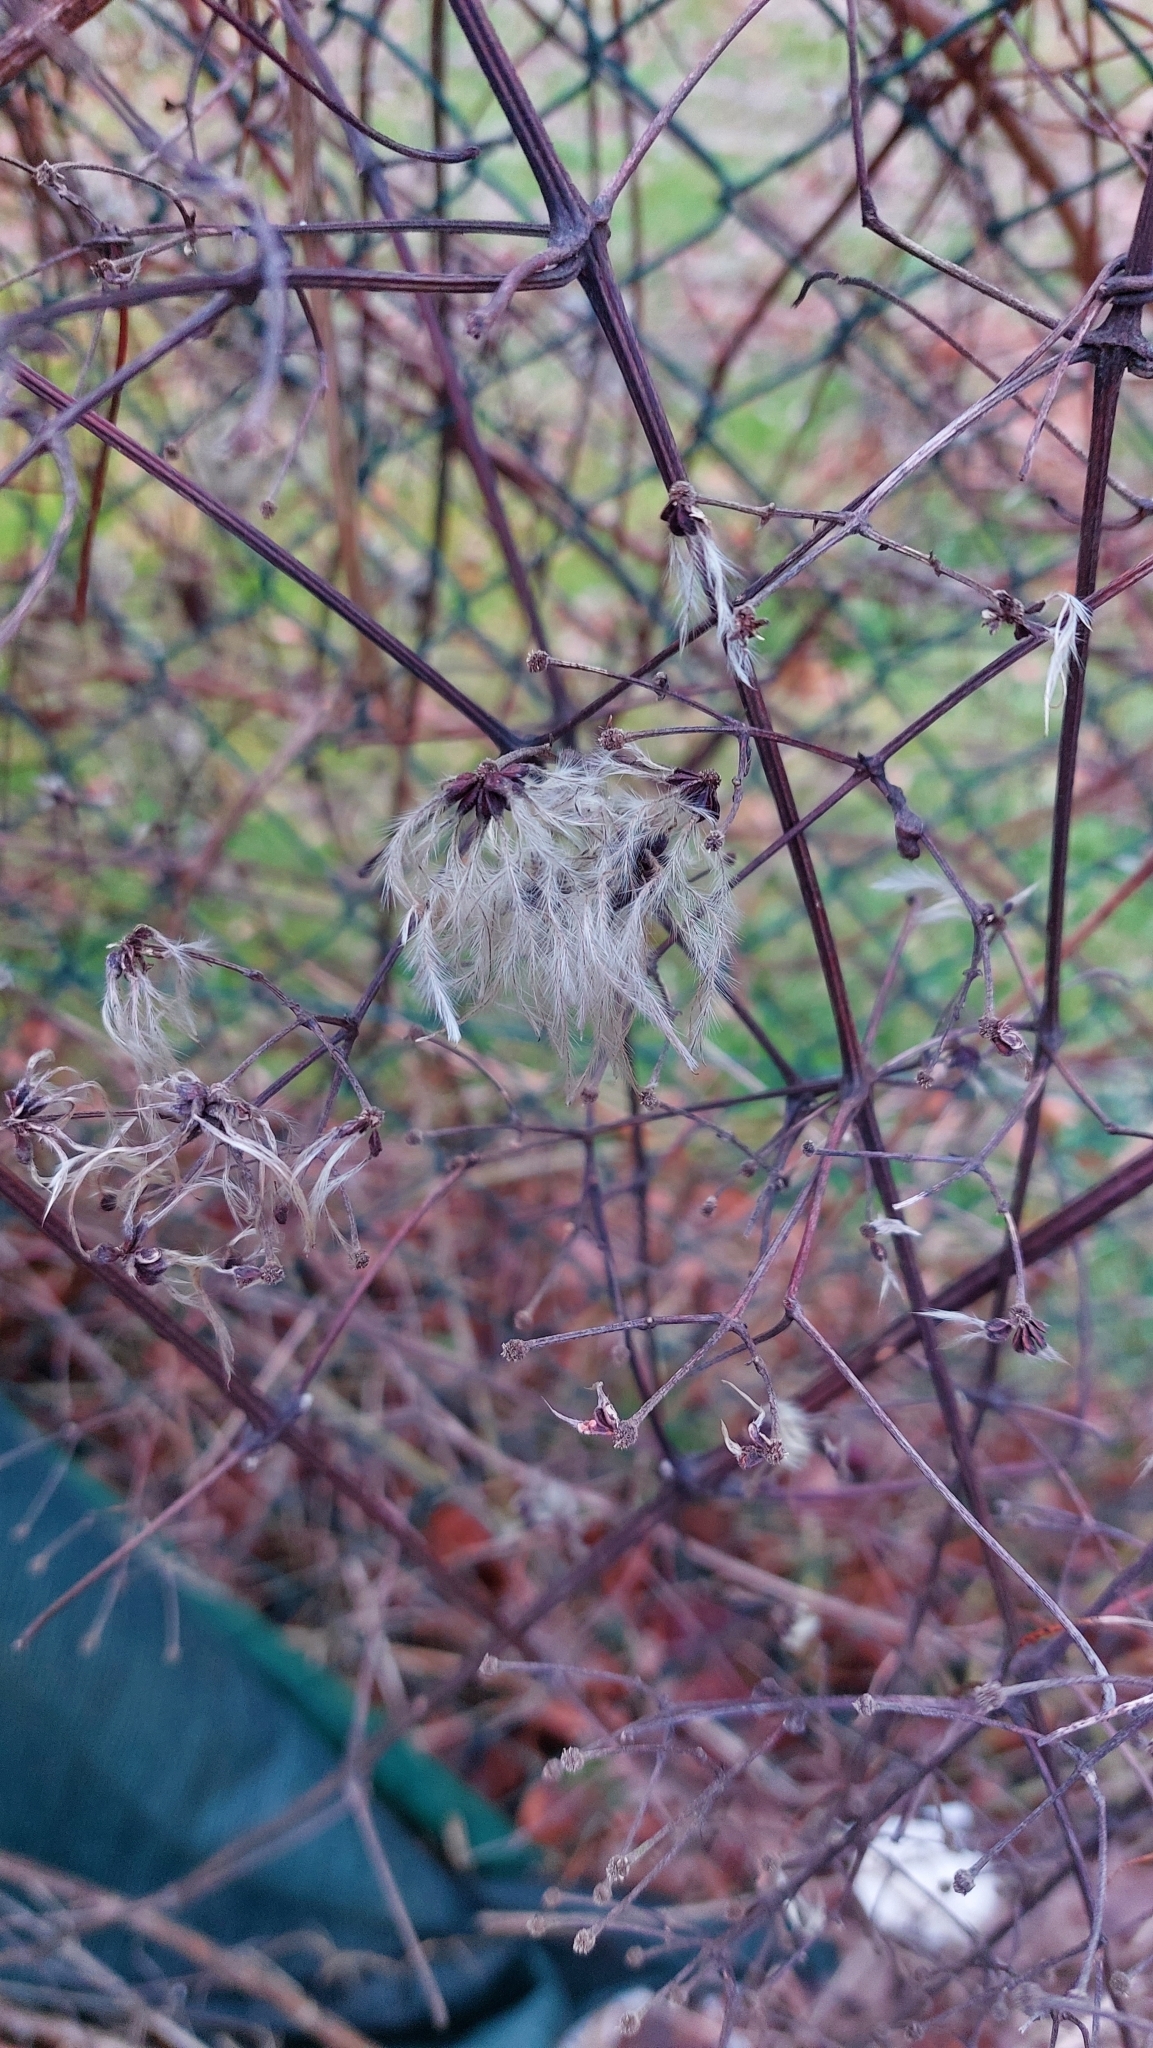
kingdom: Plantae
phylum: Tracheophyta
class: Magnoliopsida
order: Ranunculales
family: Ranunculaceae
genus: Clematis
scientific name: Clematis vitalba
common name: Evergreen clematis
